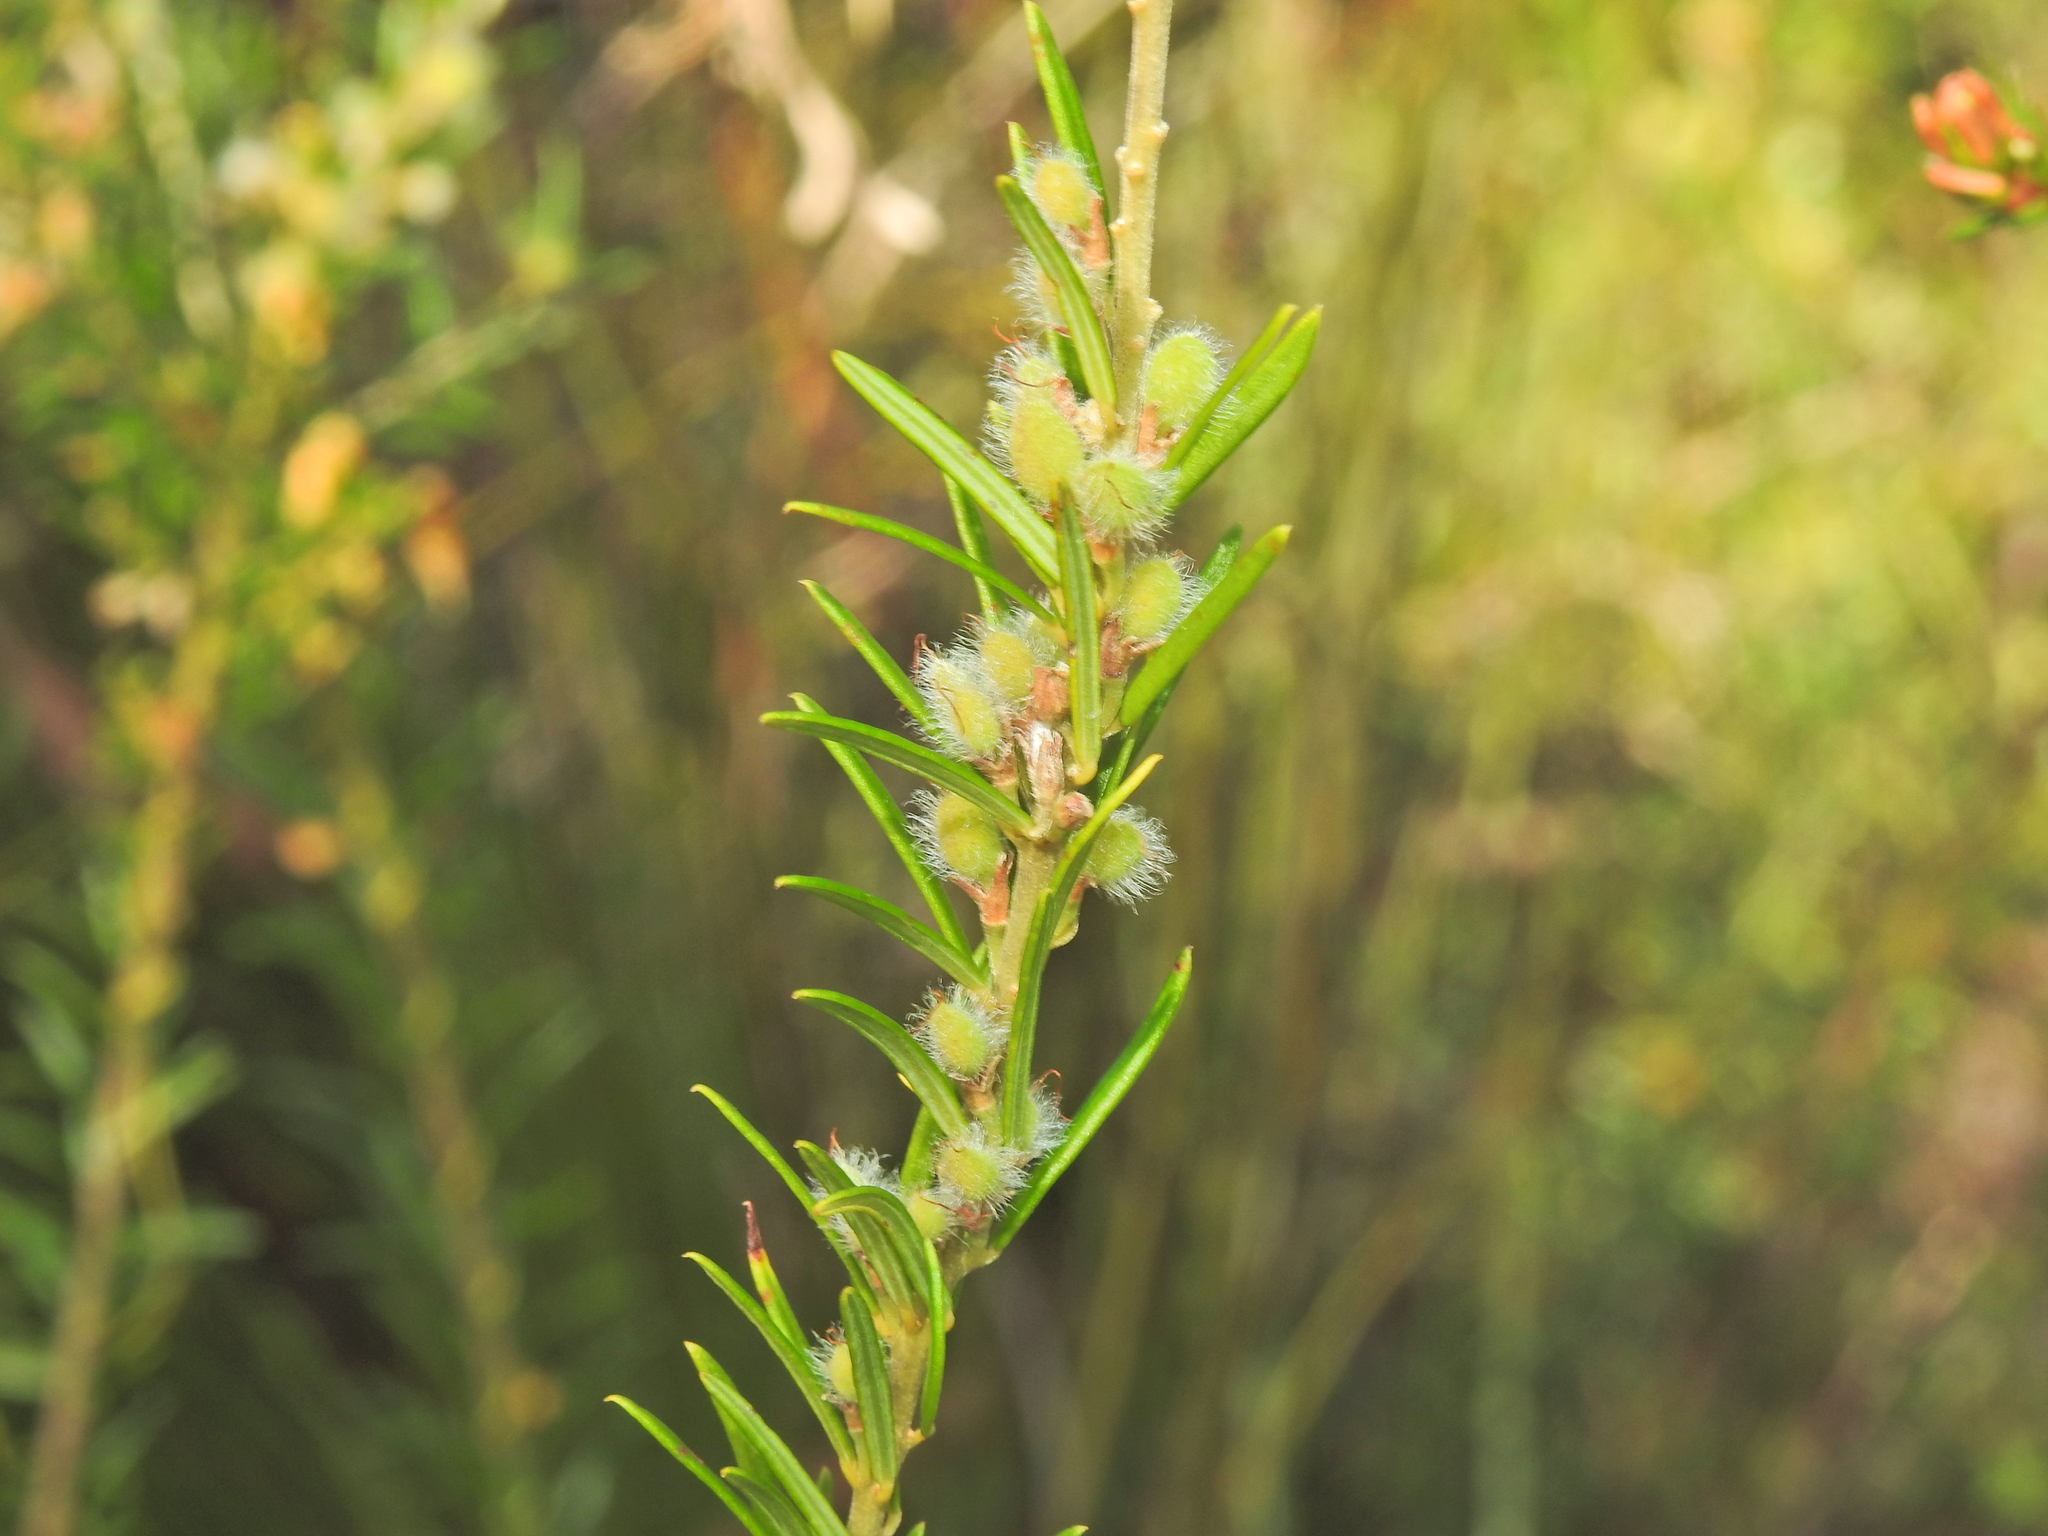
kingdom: Plantae
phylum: Tracheophyta
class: Magnoliopsida
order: Fabales
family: Fabaceae
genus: Aotus
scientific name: Aotus ericoides
